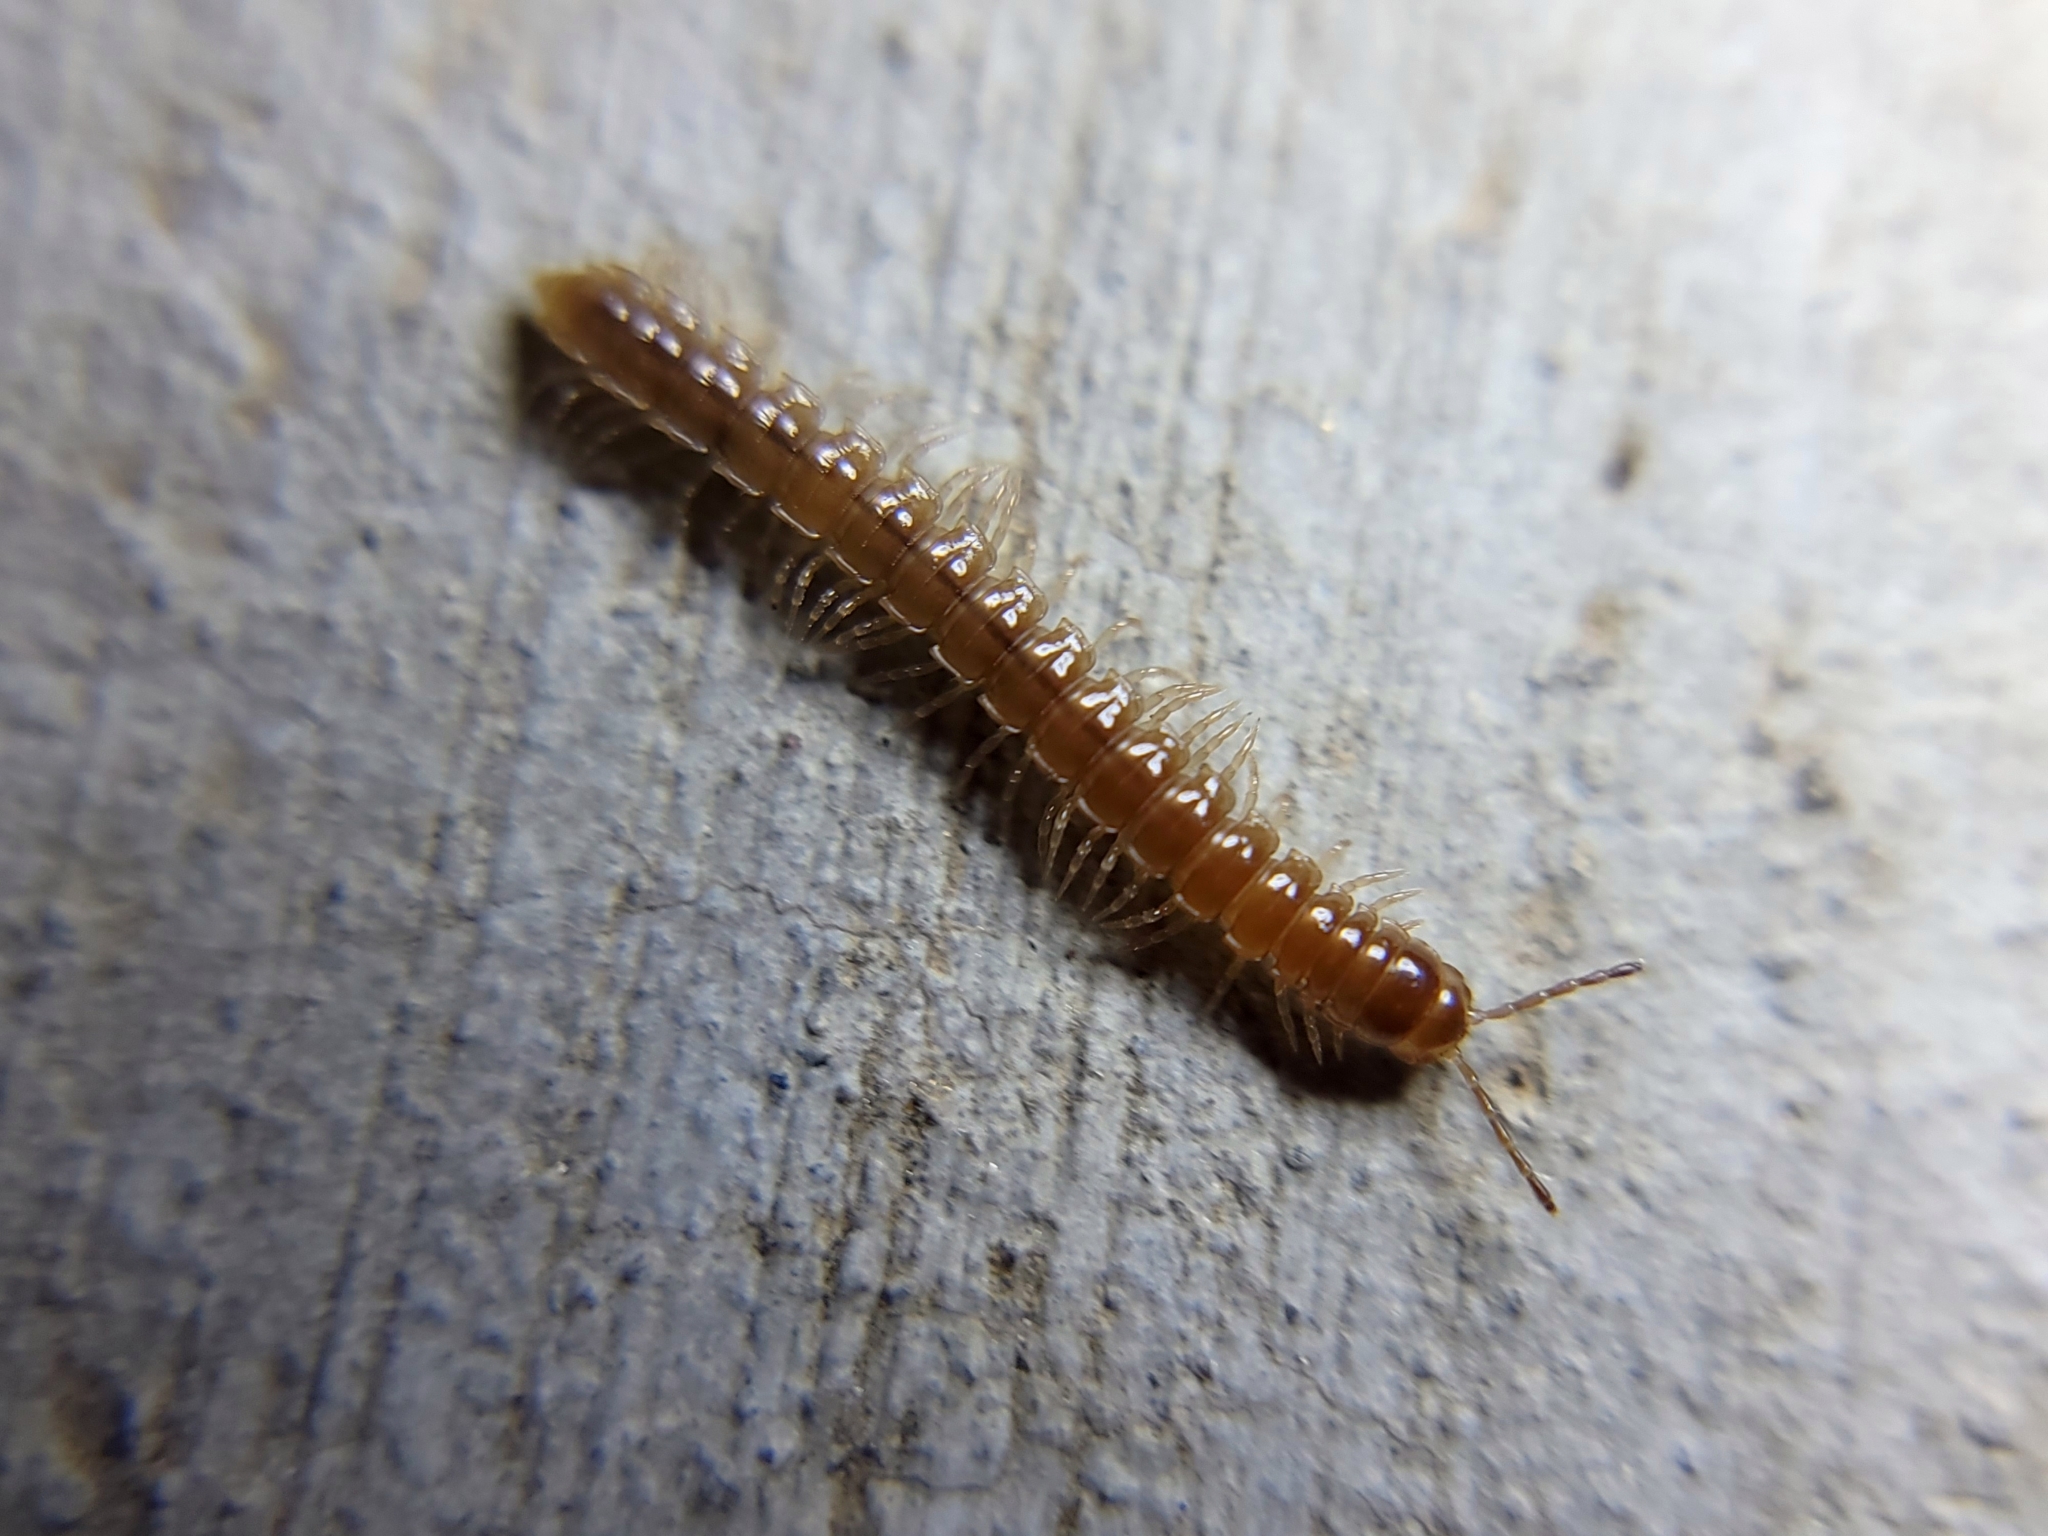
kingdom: Animalia
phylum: Arthropoda
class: Diplopoda
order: Polydesmida
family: Paradoxosomatidae
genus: Oxidus
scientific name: Oxidus gracilis
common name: Greenhouse millipede
